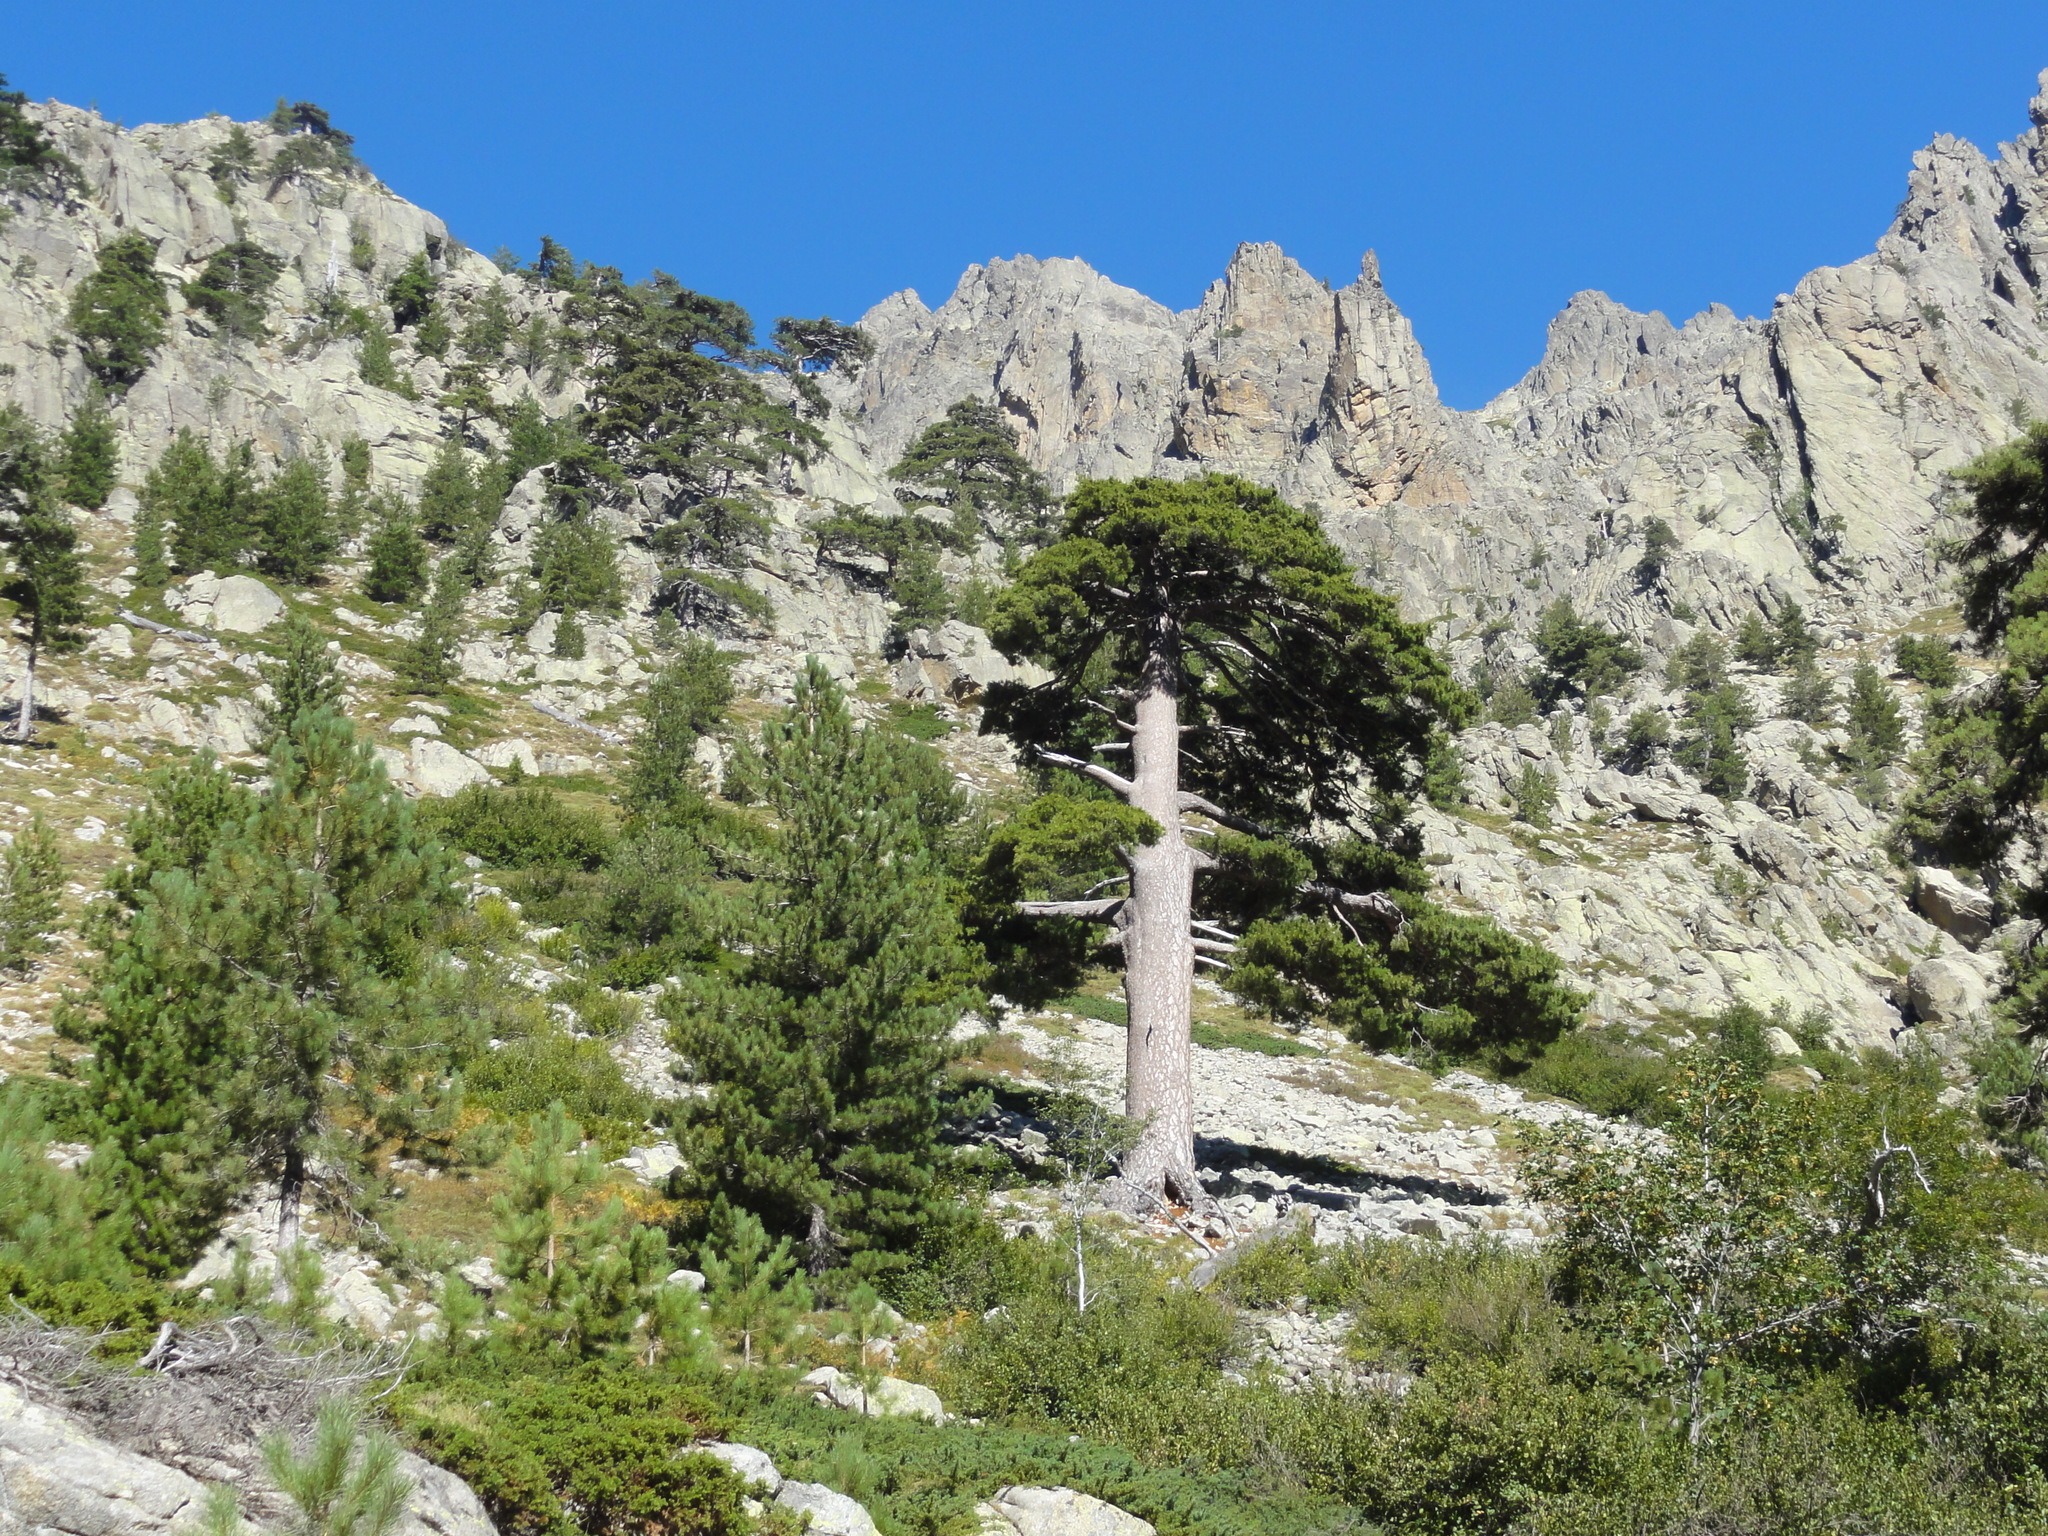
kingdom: Plantae
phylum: Tracheophyta
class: Pinopsida
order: Pinales
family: Pinaceae
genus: Pinus
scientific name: Pinus nigra
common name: Austrian pine
